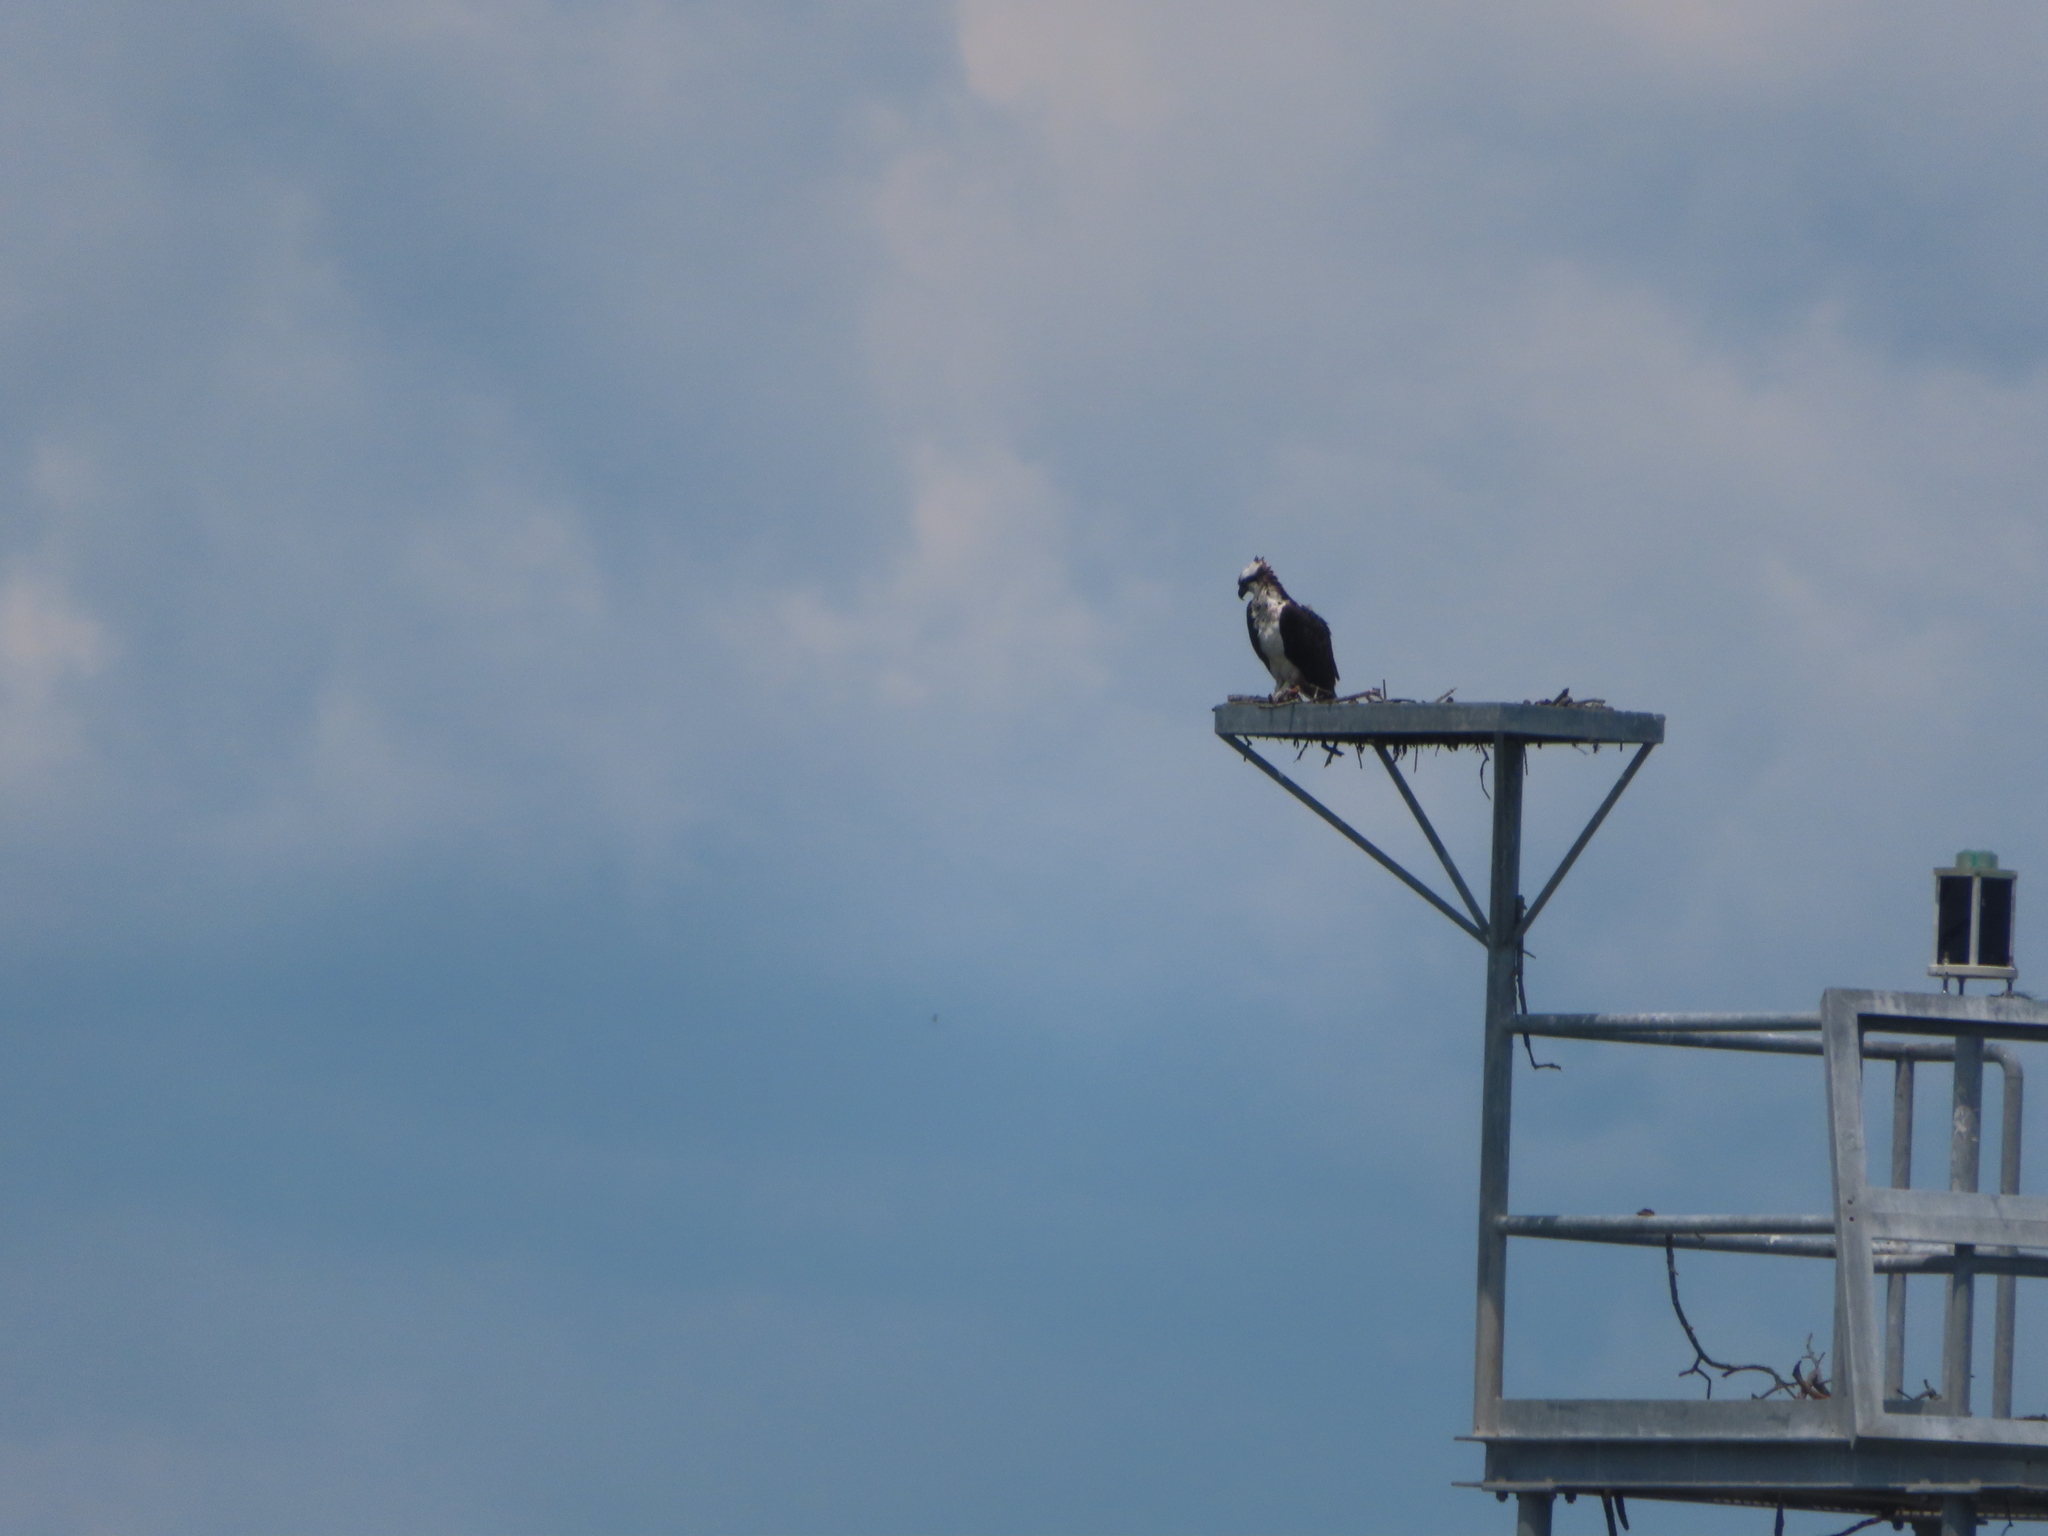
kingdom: Animalia
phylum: Chordata
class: Aves
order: Accipitriformes
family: Pandionidae
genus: Pandion
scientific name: Pandion haliaetus
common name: Osprey
